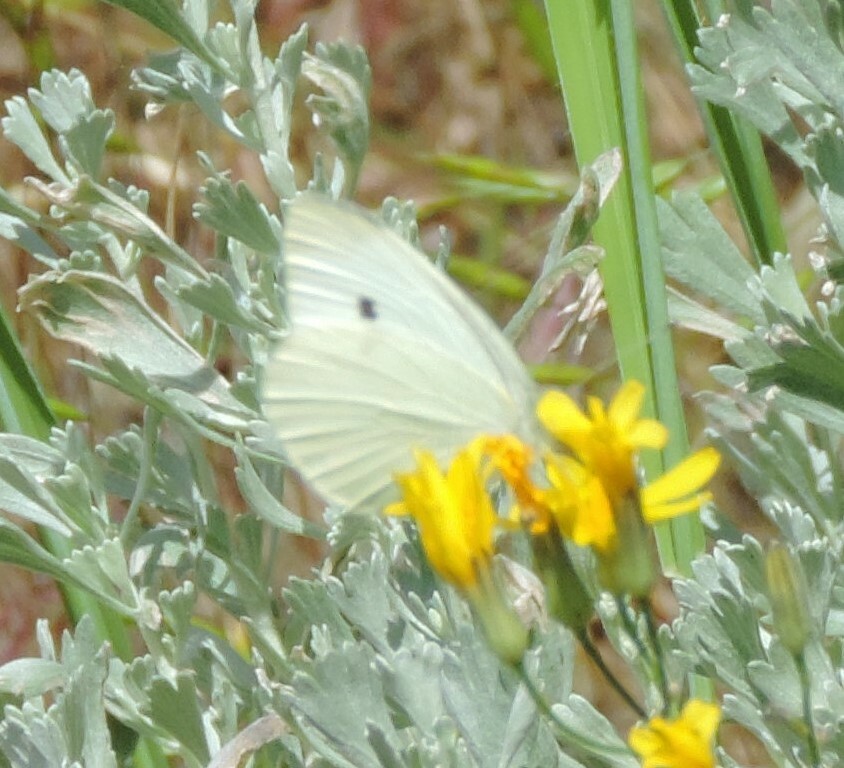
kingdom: Animalia
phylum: Arthropoda
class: Insecta
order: Lepidoptera
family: Pieridae
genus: Pieris
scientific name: Pieris rapae
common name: Small white
